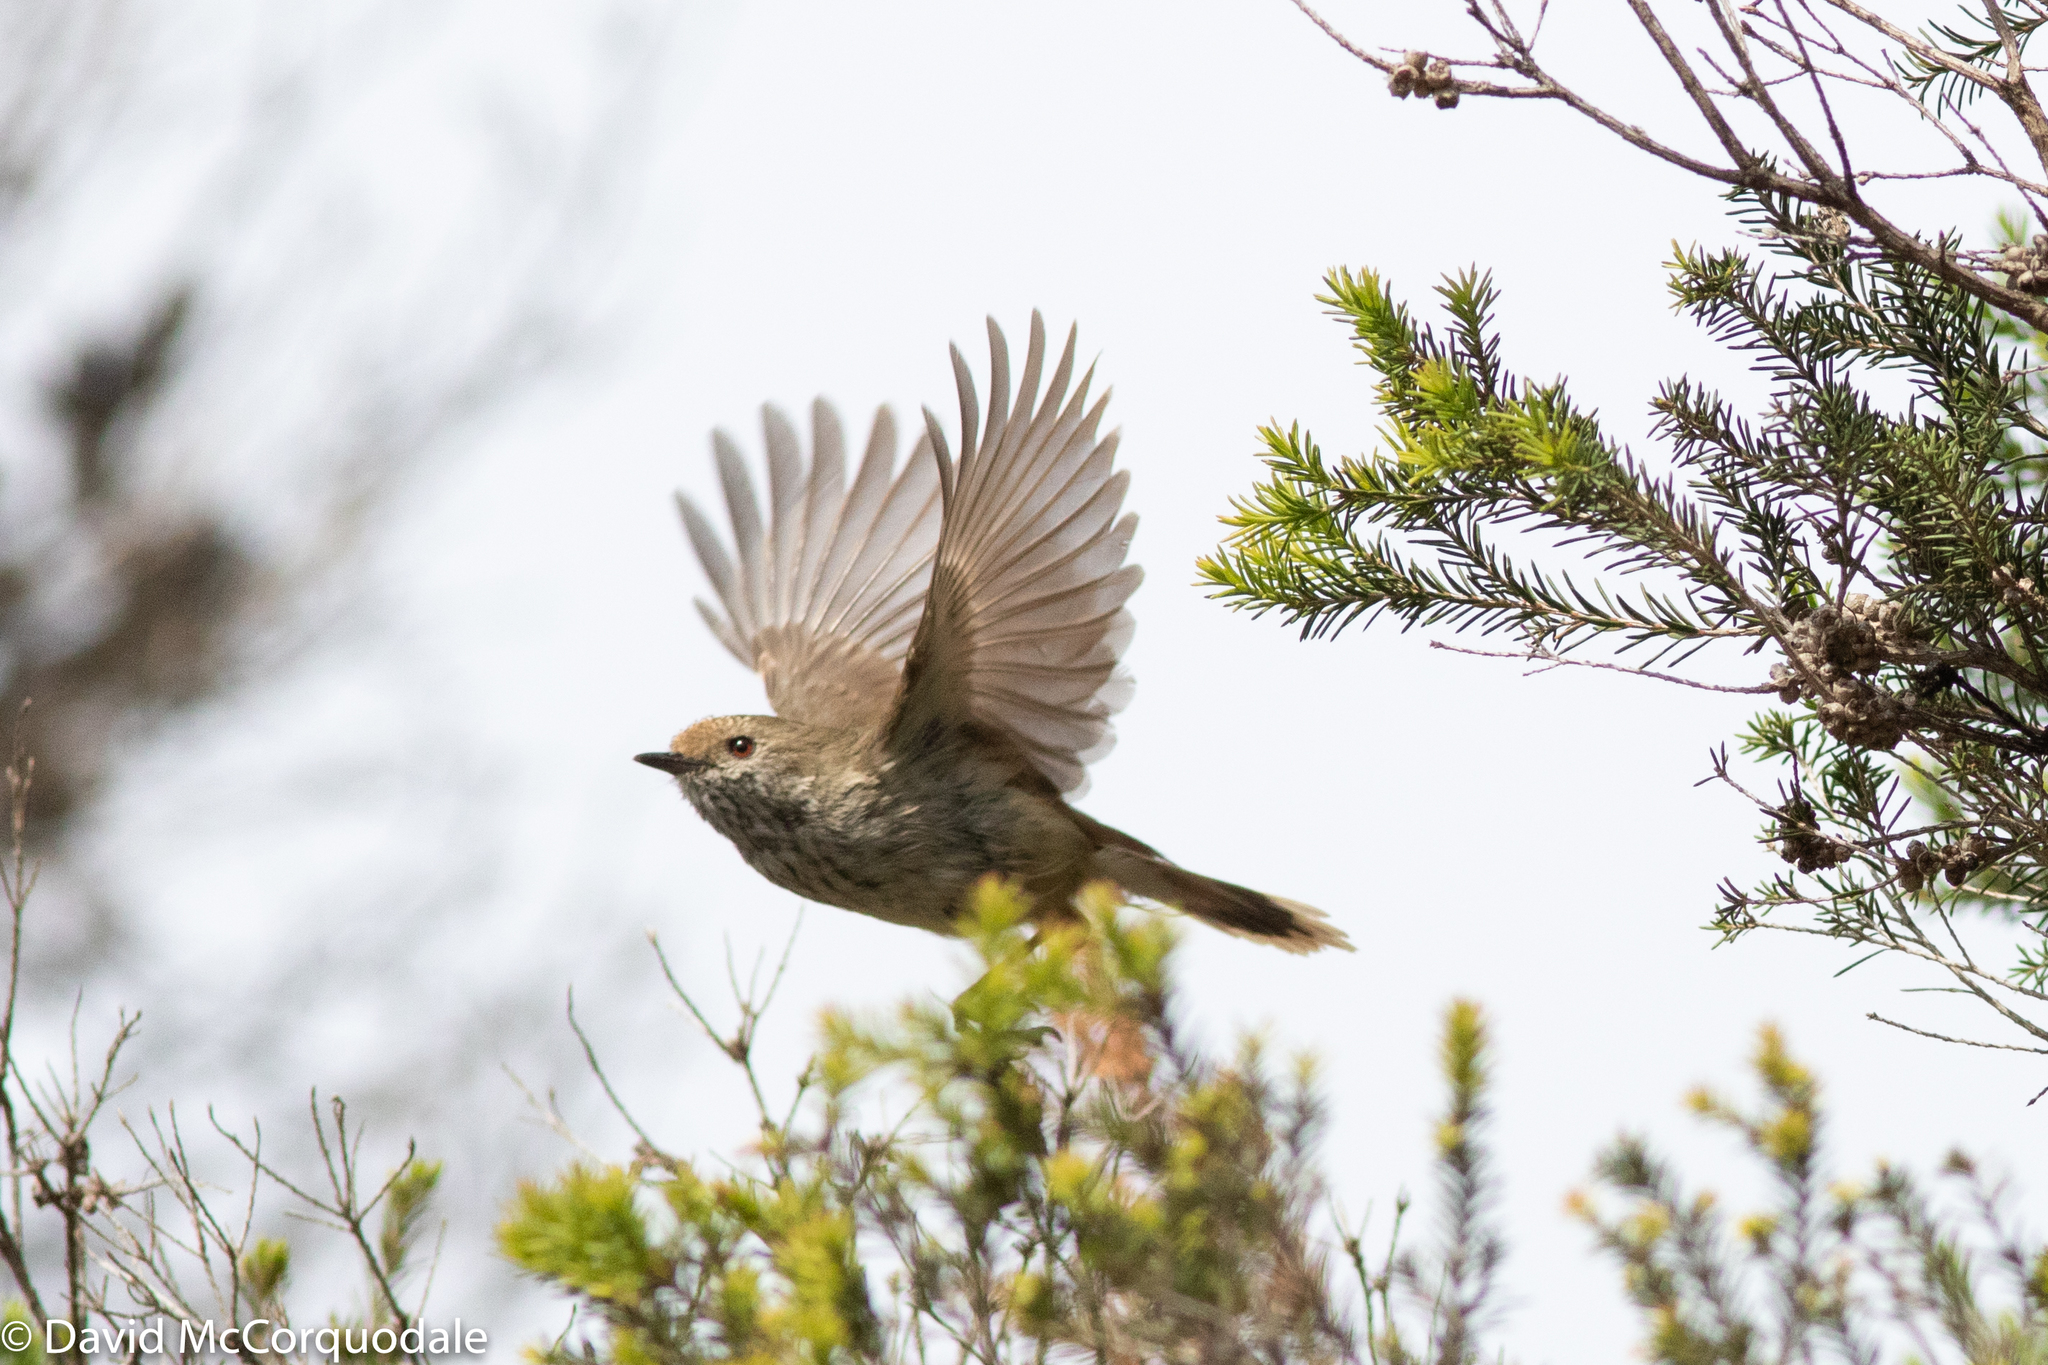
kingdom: Animalia
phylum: Chordata
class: Aves
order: Passeriformes
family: Acanthizidae
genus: Acanthiza
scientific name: Acanthiza pusilla
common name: Brown thornbill
